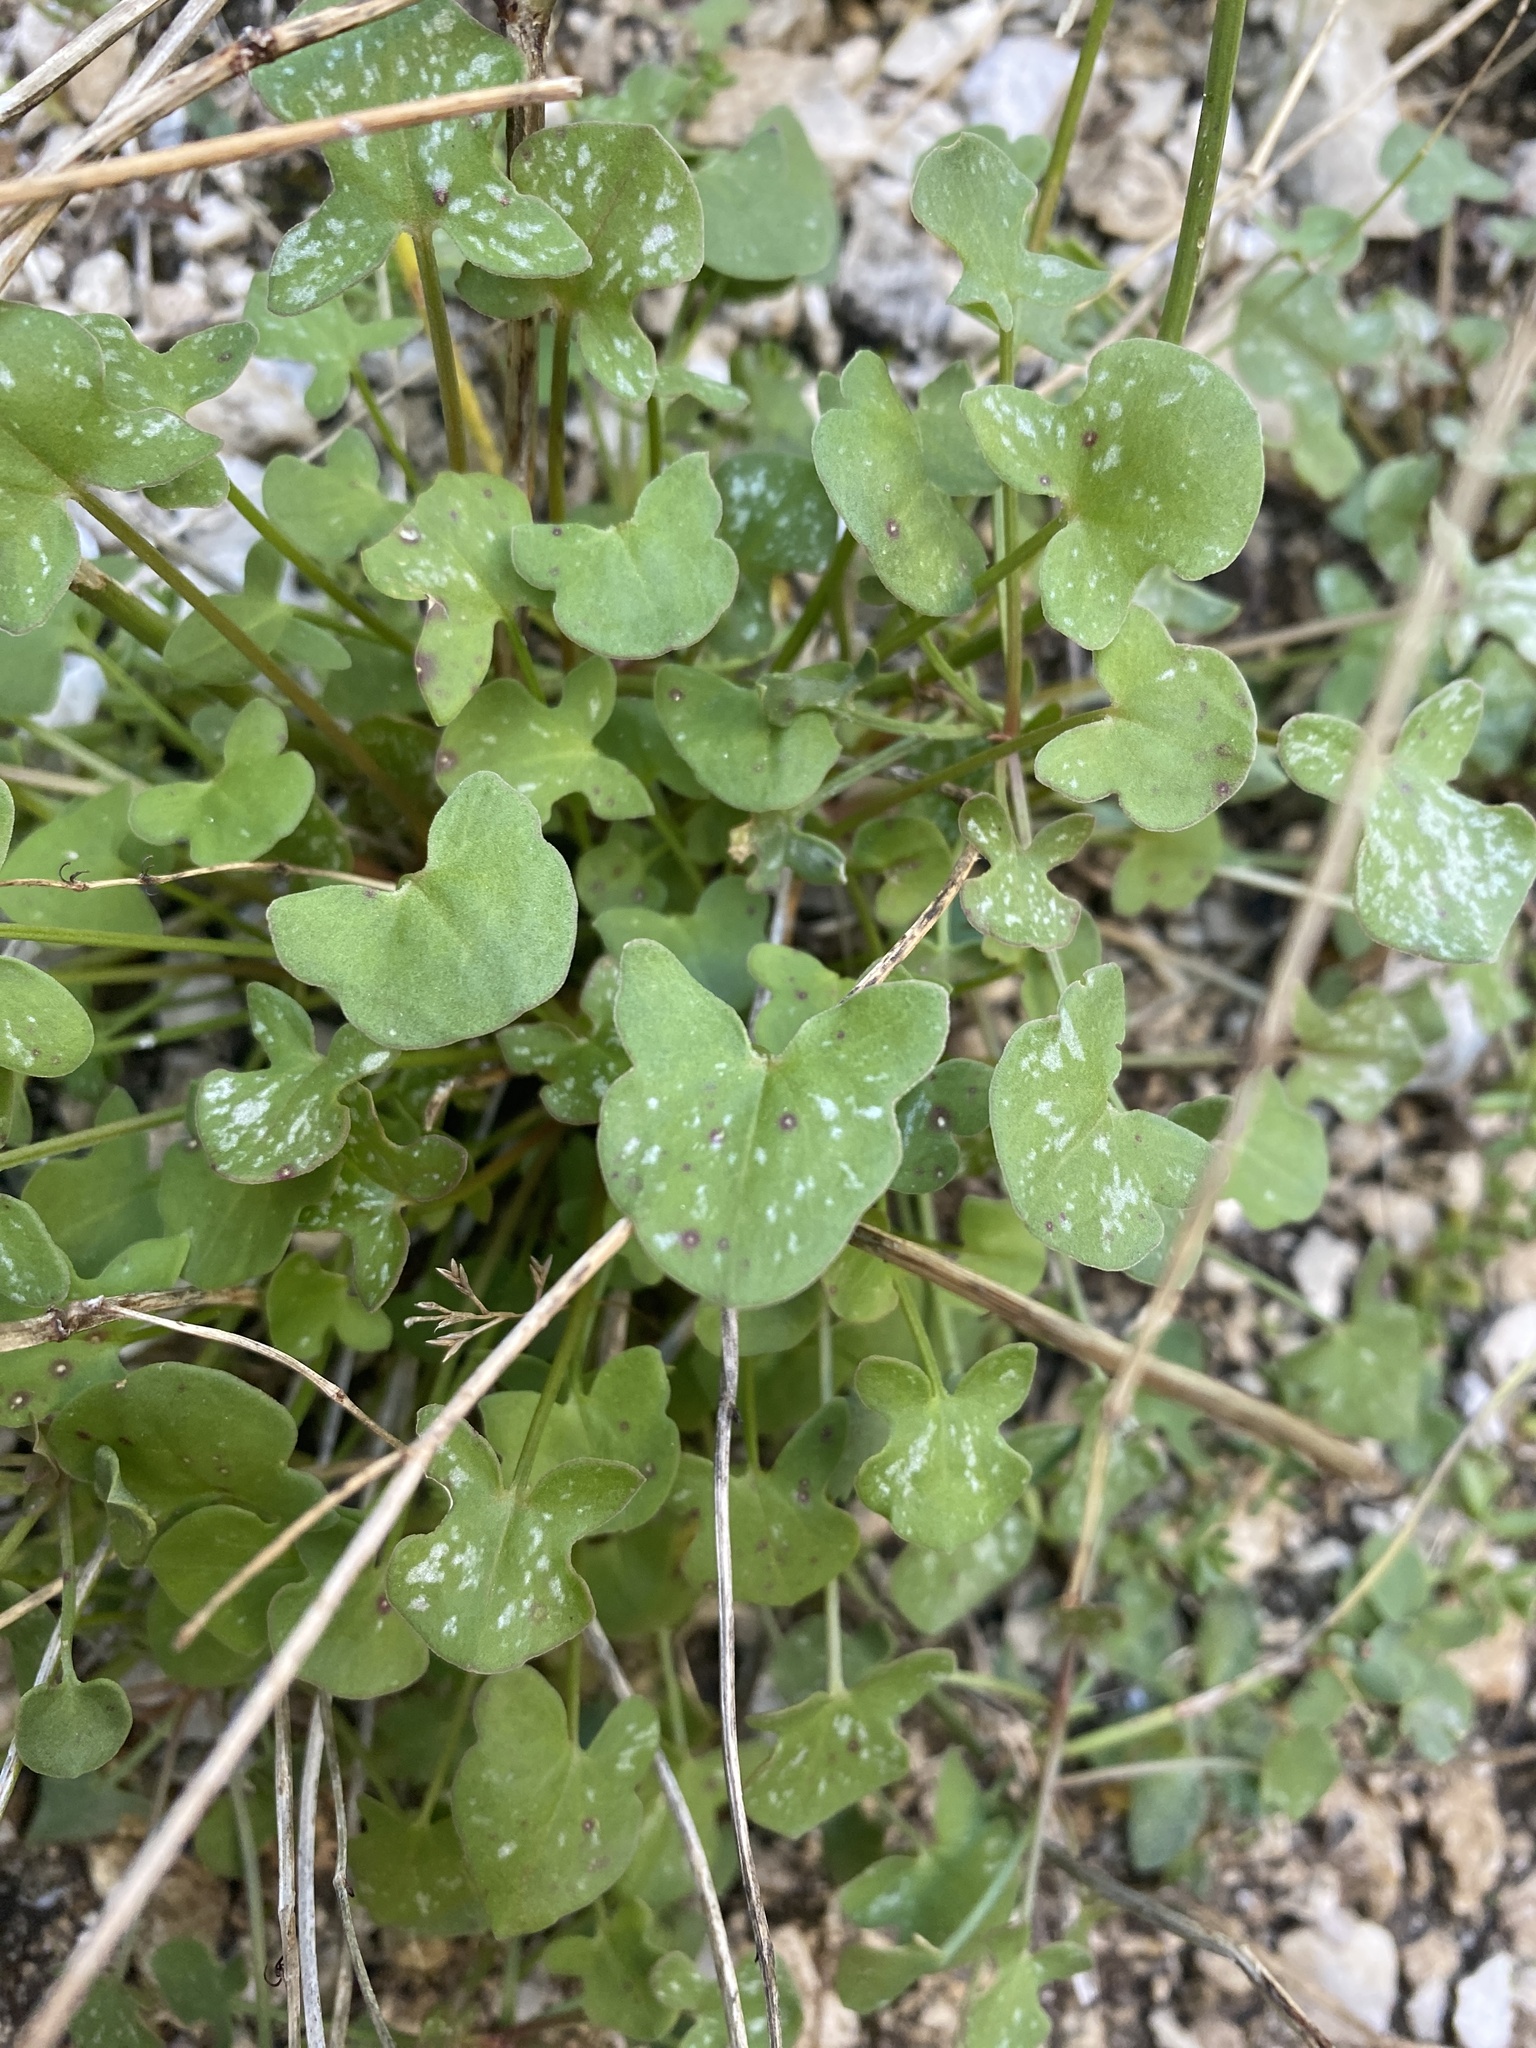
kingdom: Plantae
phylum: Tracheophyta
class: Magnoliopsida
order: Caryophyllales
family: Polygonaceae
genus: Rumex
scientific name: Rumex scutatus
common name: French sorrel
